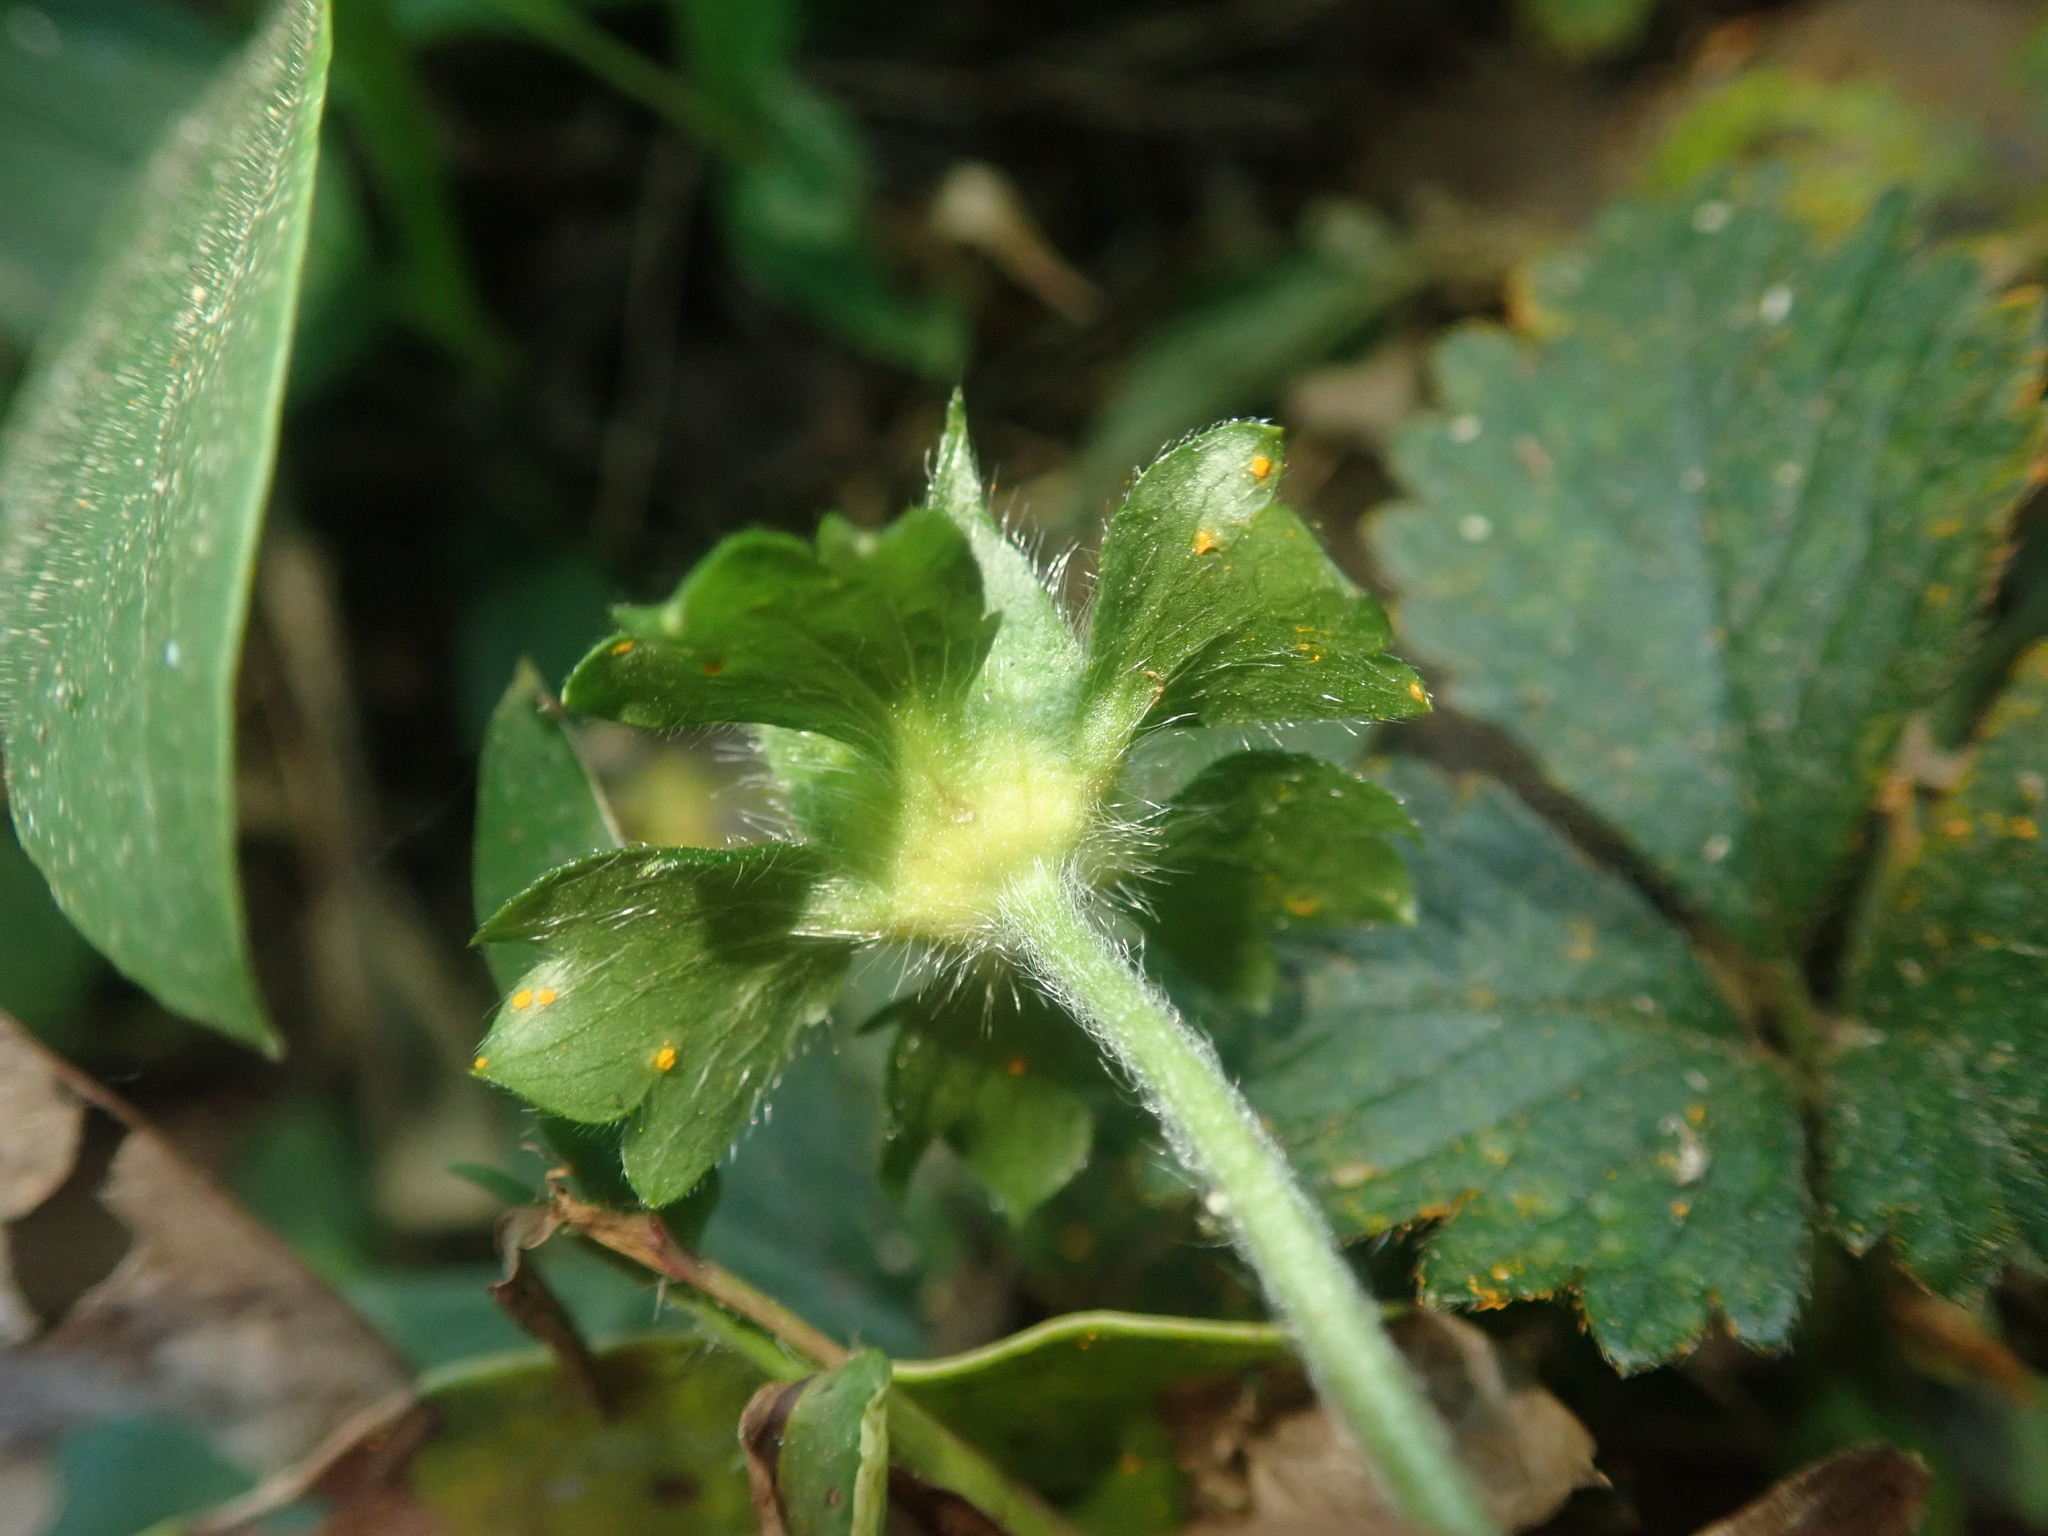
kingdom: Plantae
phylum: Tracheophyta
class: Magnoliopsida
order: Rosales
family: Rosaceae
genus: Potentilla
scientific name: Potentilla indica
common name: Yellow-flowered strawberry
